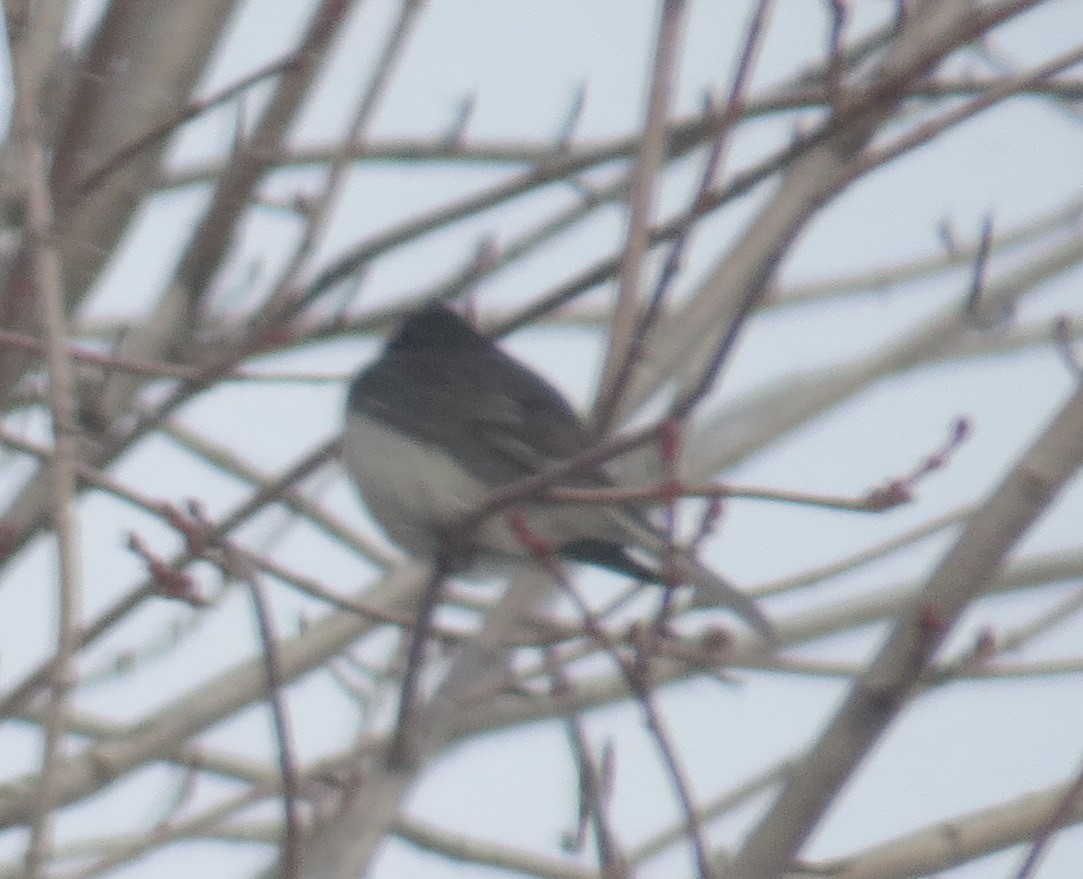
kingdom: Animalia
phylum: Chordata
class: Aves
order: Passeriformes
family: Passerellidae
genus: Junco
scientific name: Junco hyemalis
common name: Dark-eyed junco
